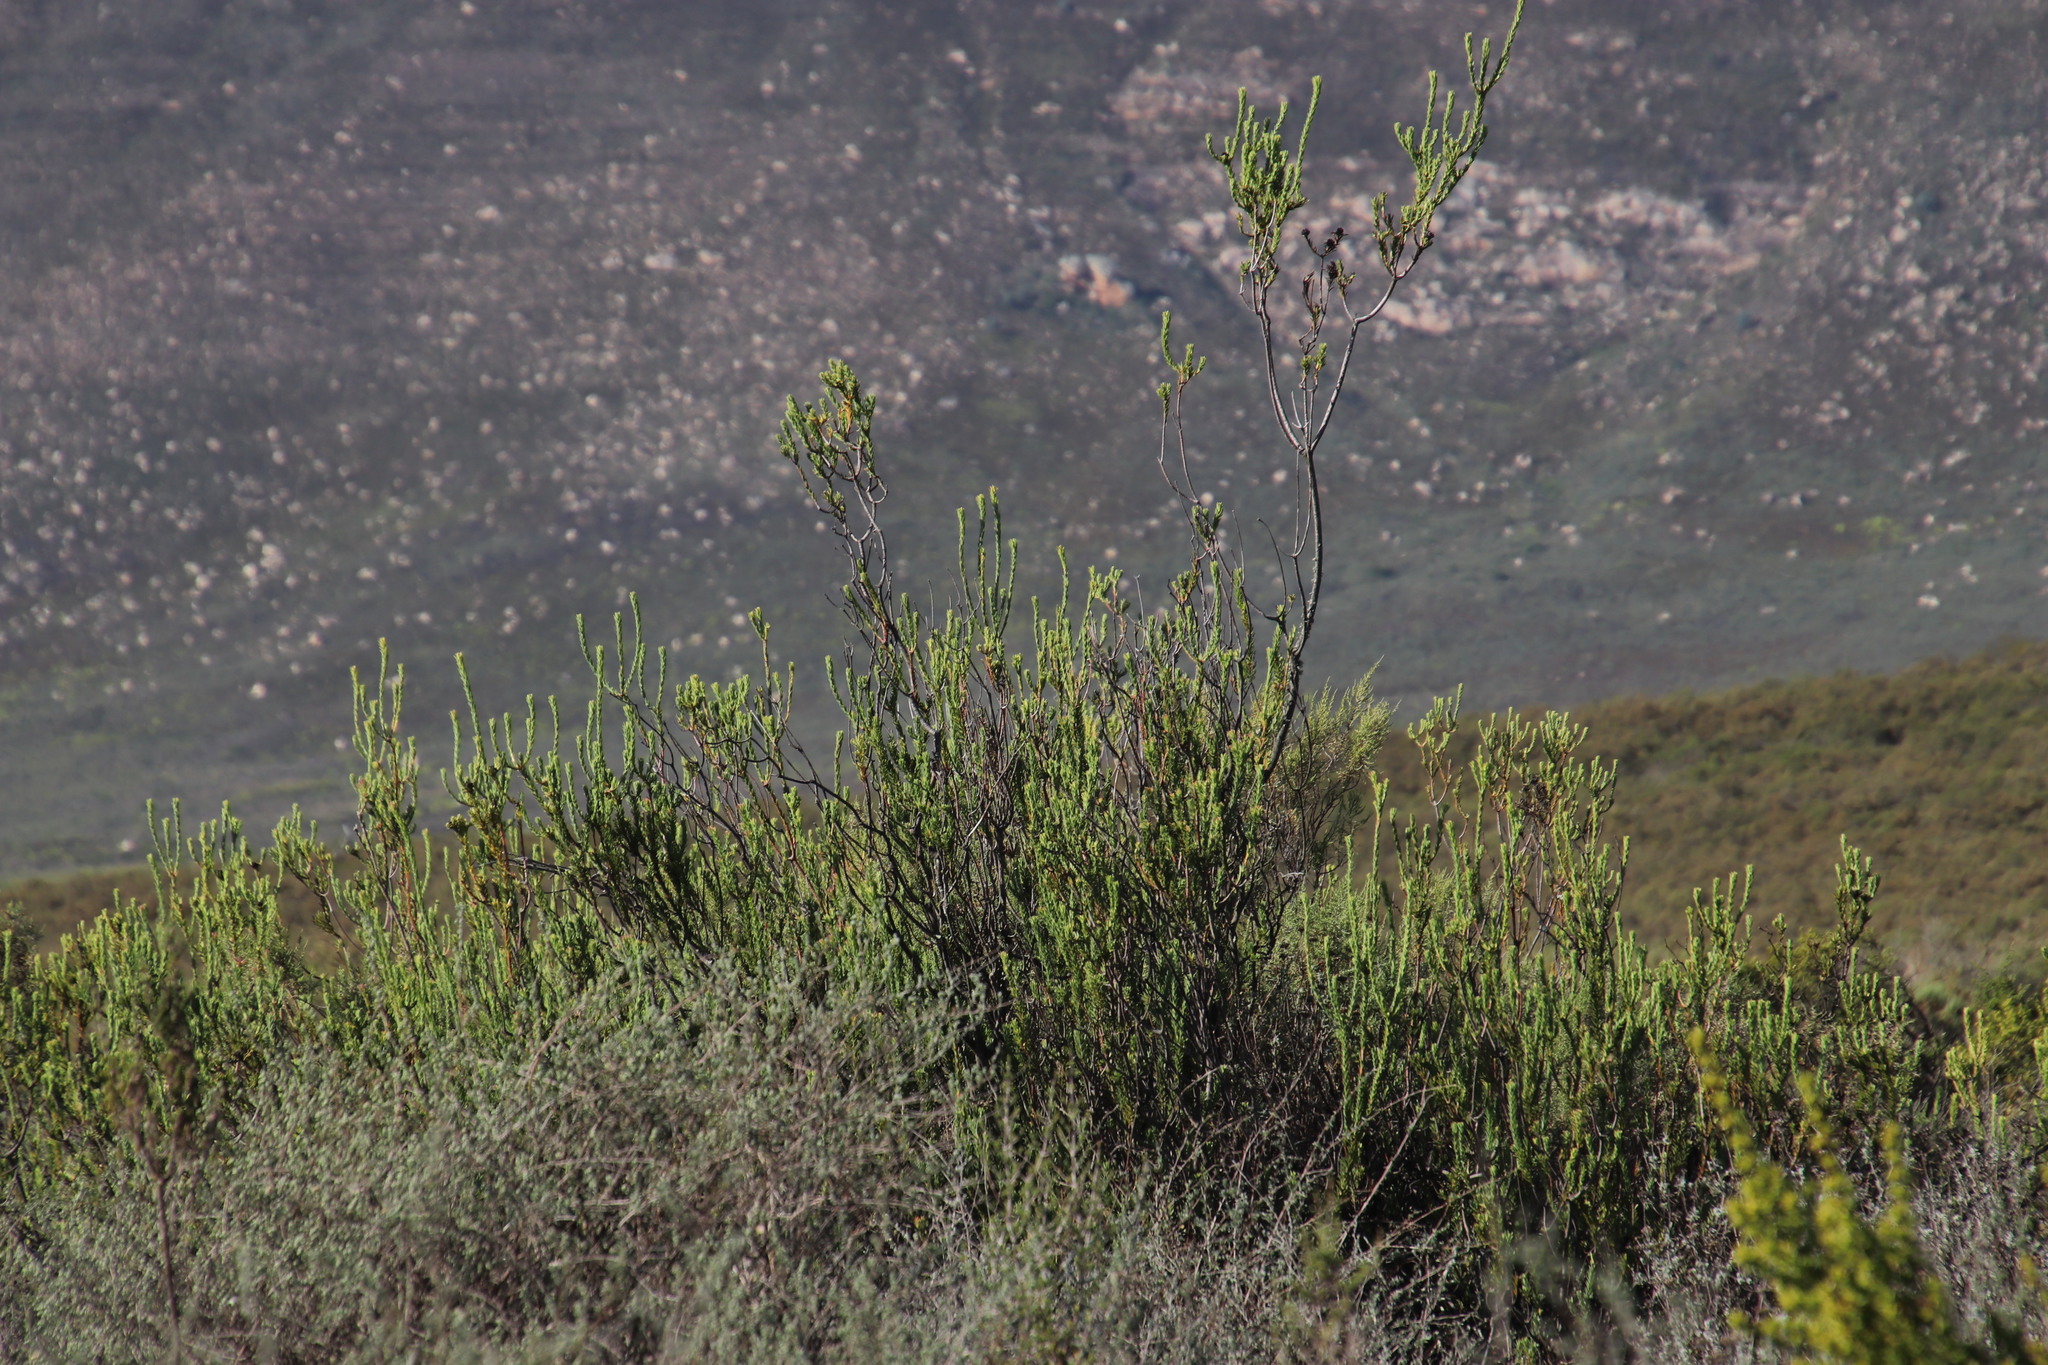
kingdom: Plantae
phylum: Tracheophyta
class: Magnoliopsida
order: Proteales
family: Proteaceae
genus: Leucadendron
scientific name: Leucadendron stellare
